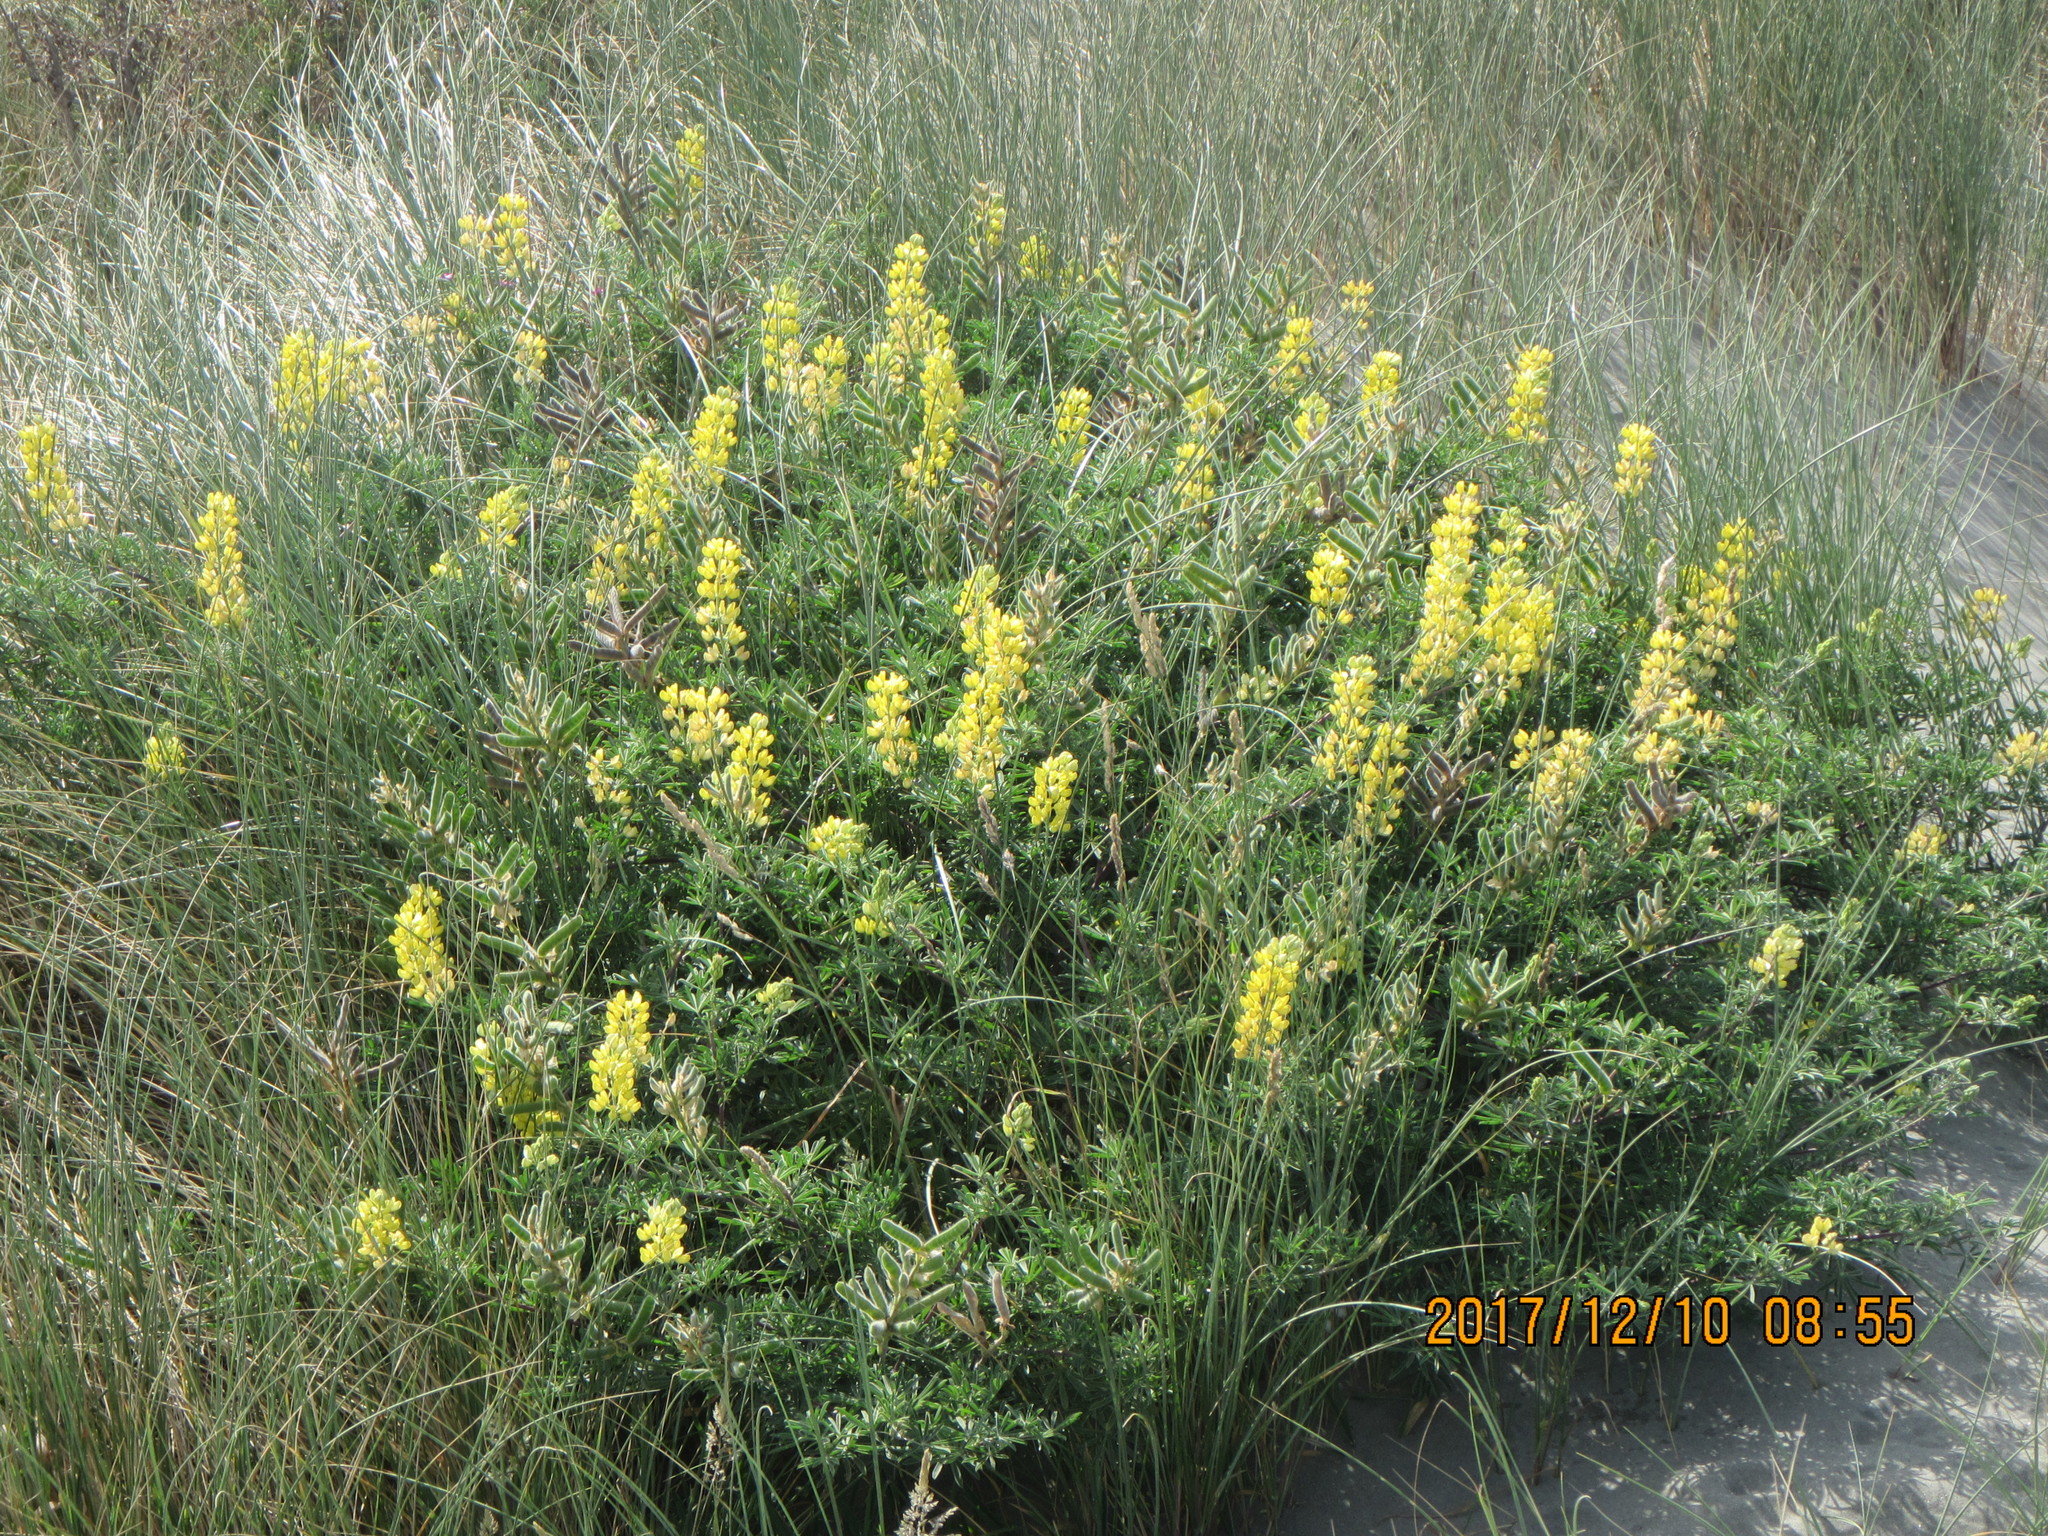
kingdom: Plantae
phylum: Tracheophyta
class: Magnoliopsida
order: Fabales
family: Fabaceae
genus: Lupinus
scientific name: Lupinus arboreus
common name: Yellow bush lupine
